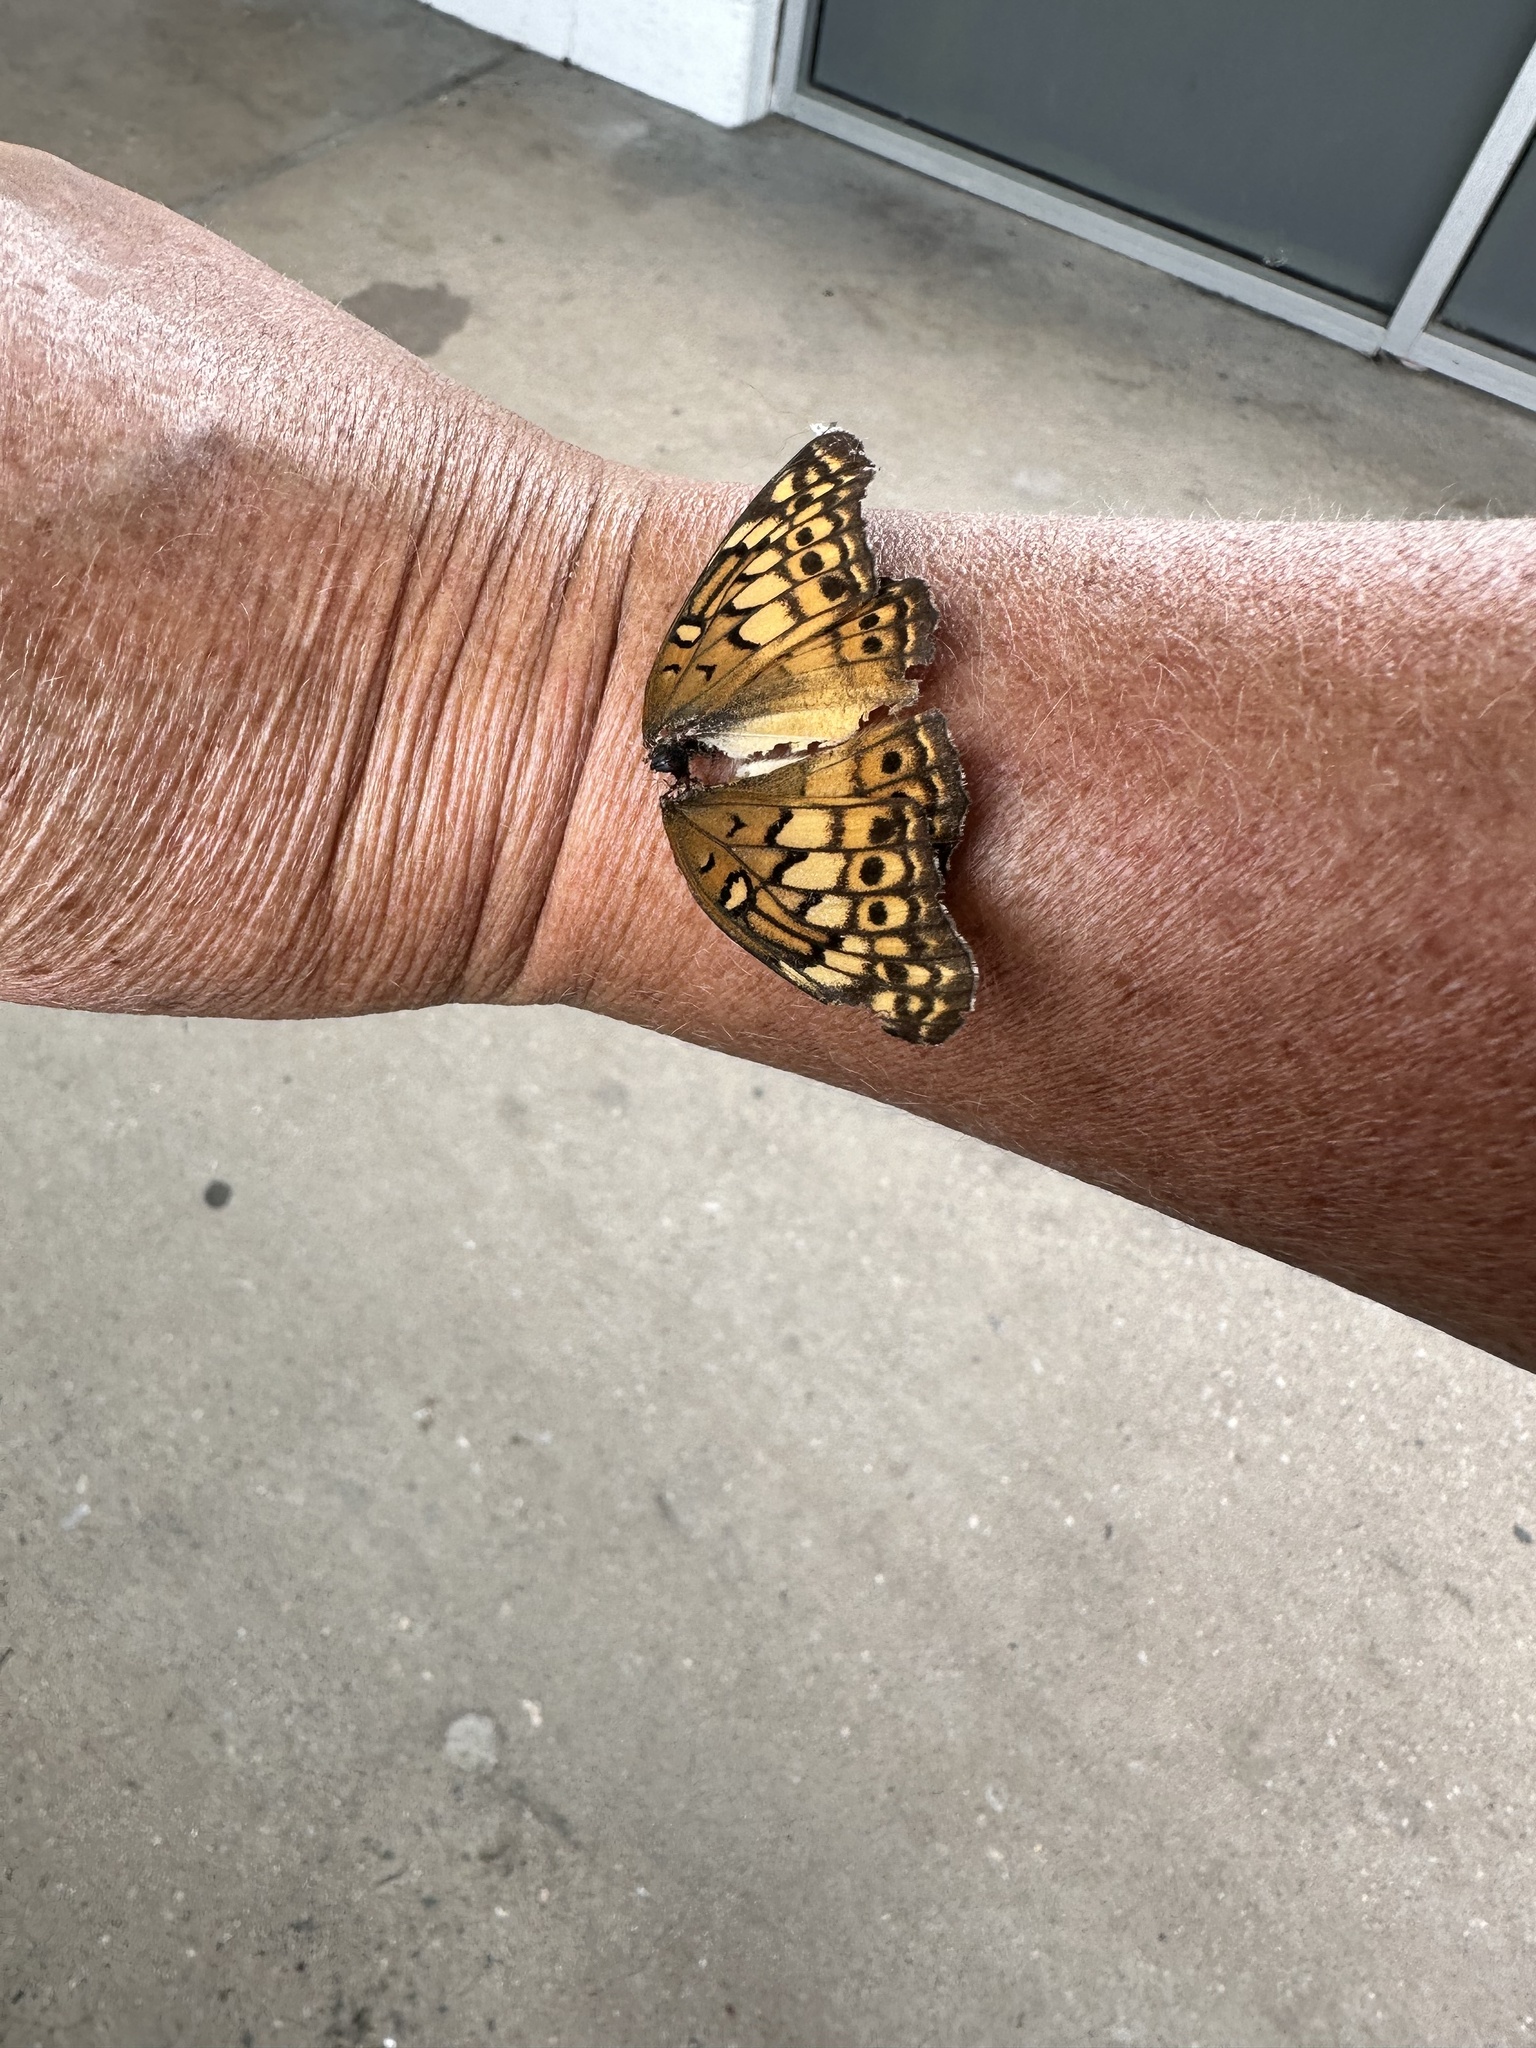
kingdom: Animalia
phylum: Arthropoda
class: Insecta
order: Lepidoptera
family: Nymphalidae
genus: Euptoieta
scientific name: Euptoieta claudia
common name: Variegated fritillary
